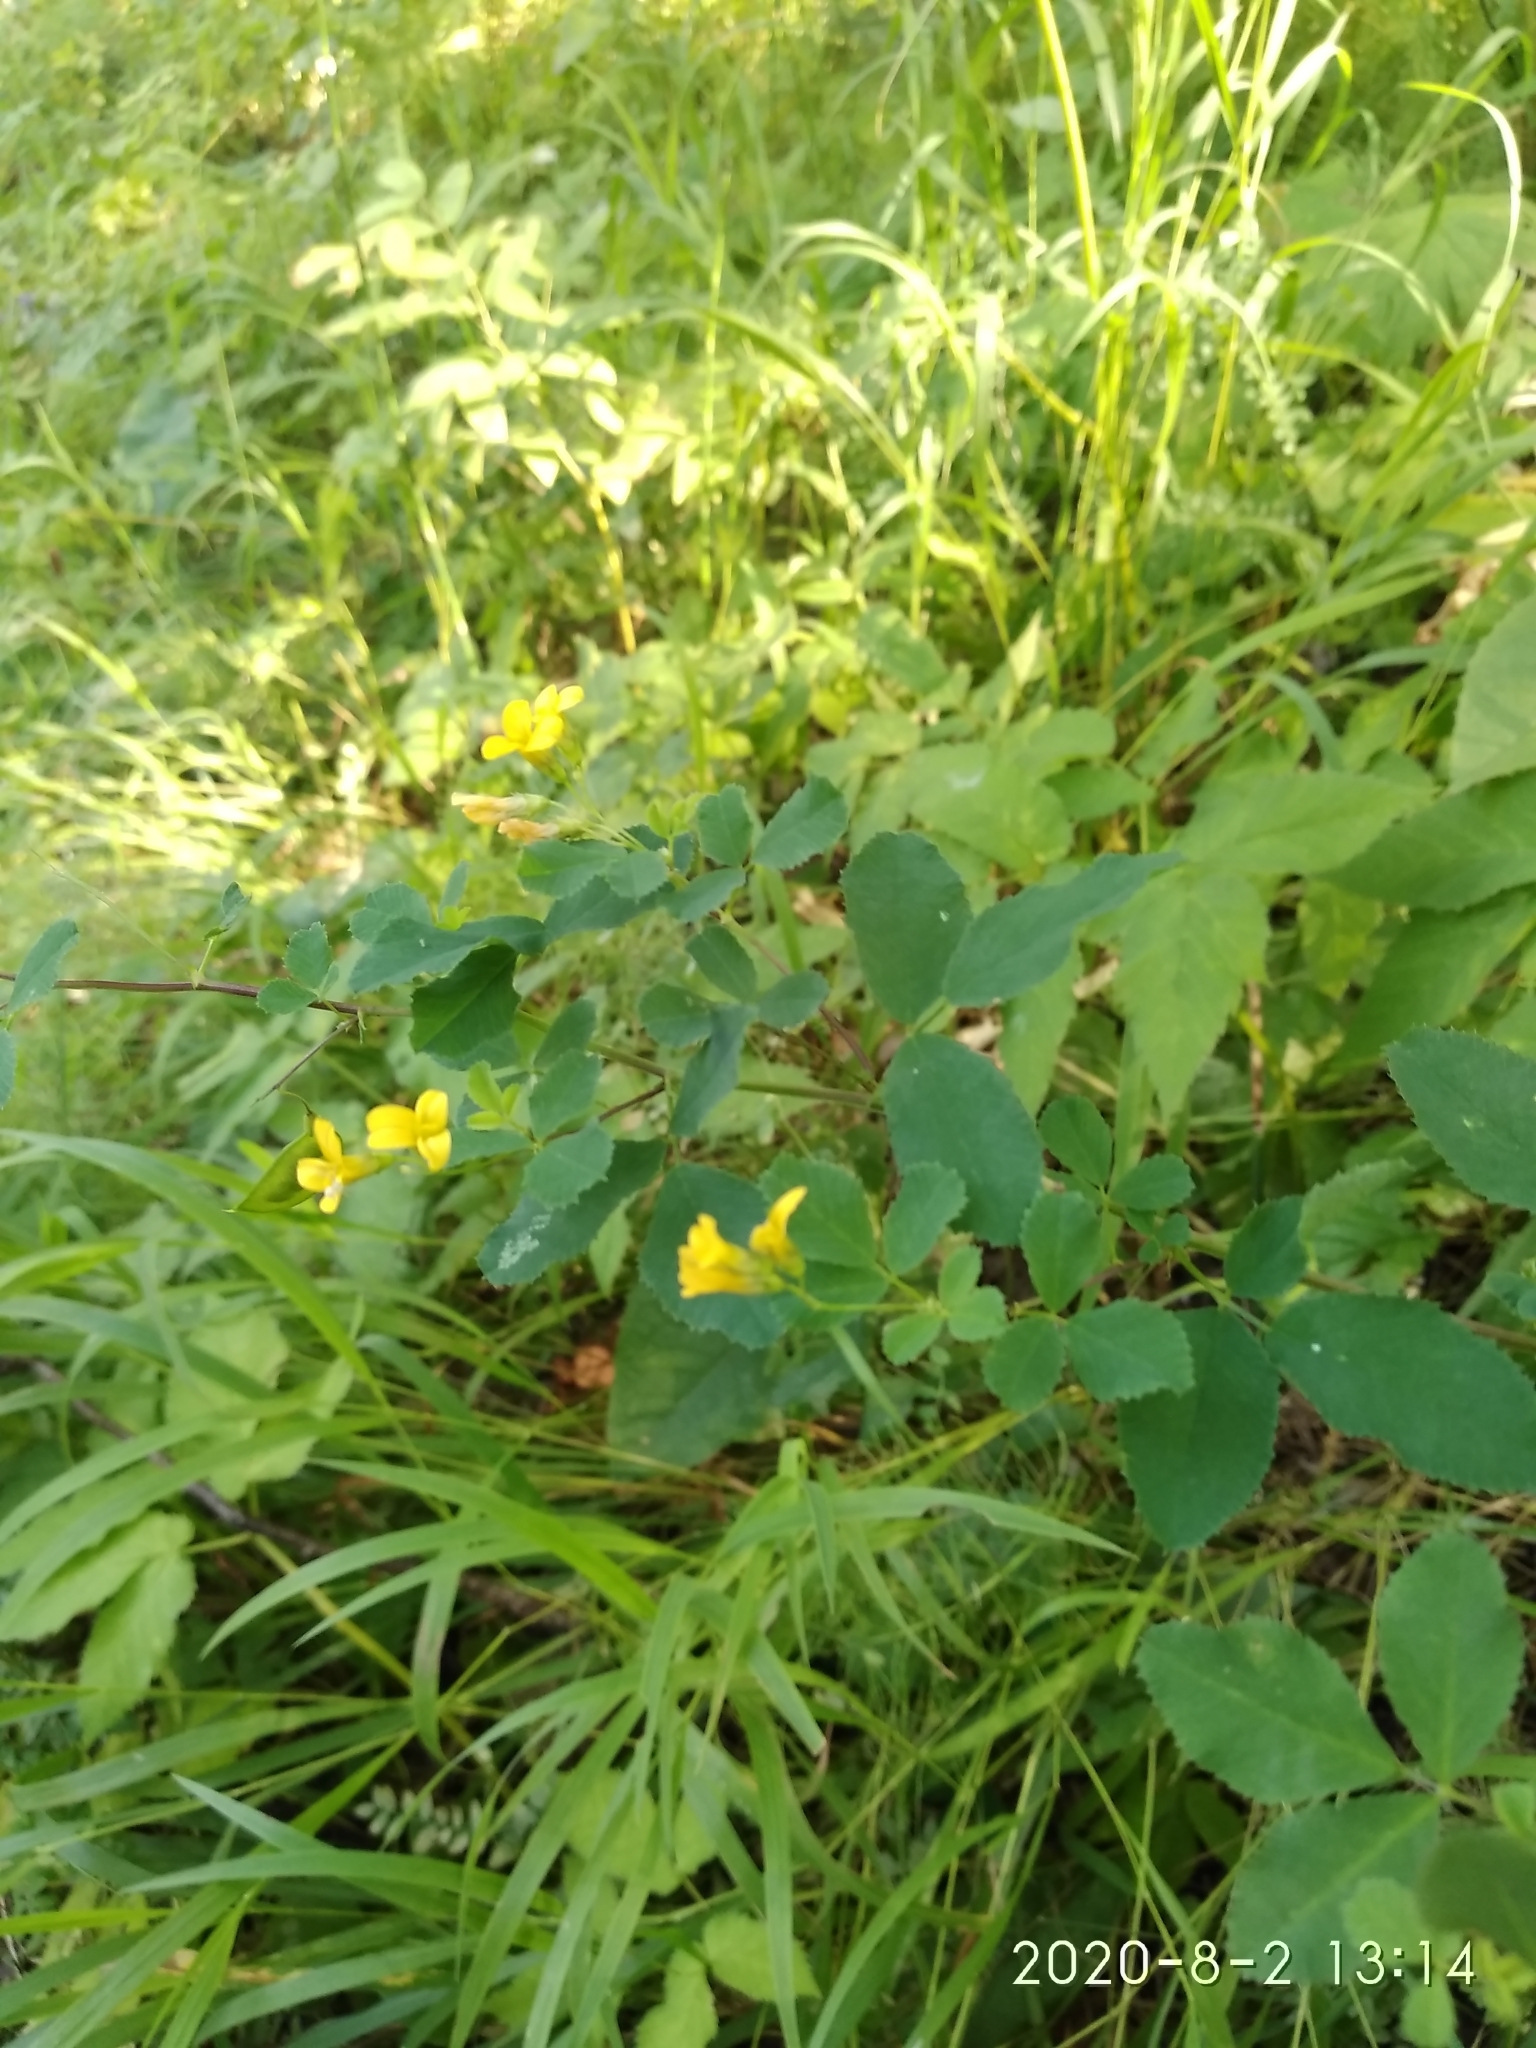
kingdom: Plantae
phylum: Tracheophyta
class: Magnoliopsida
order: Fabales
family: Fabaceae
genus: Medicago
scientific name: Medicago platycarpos
